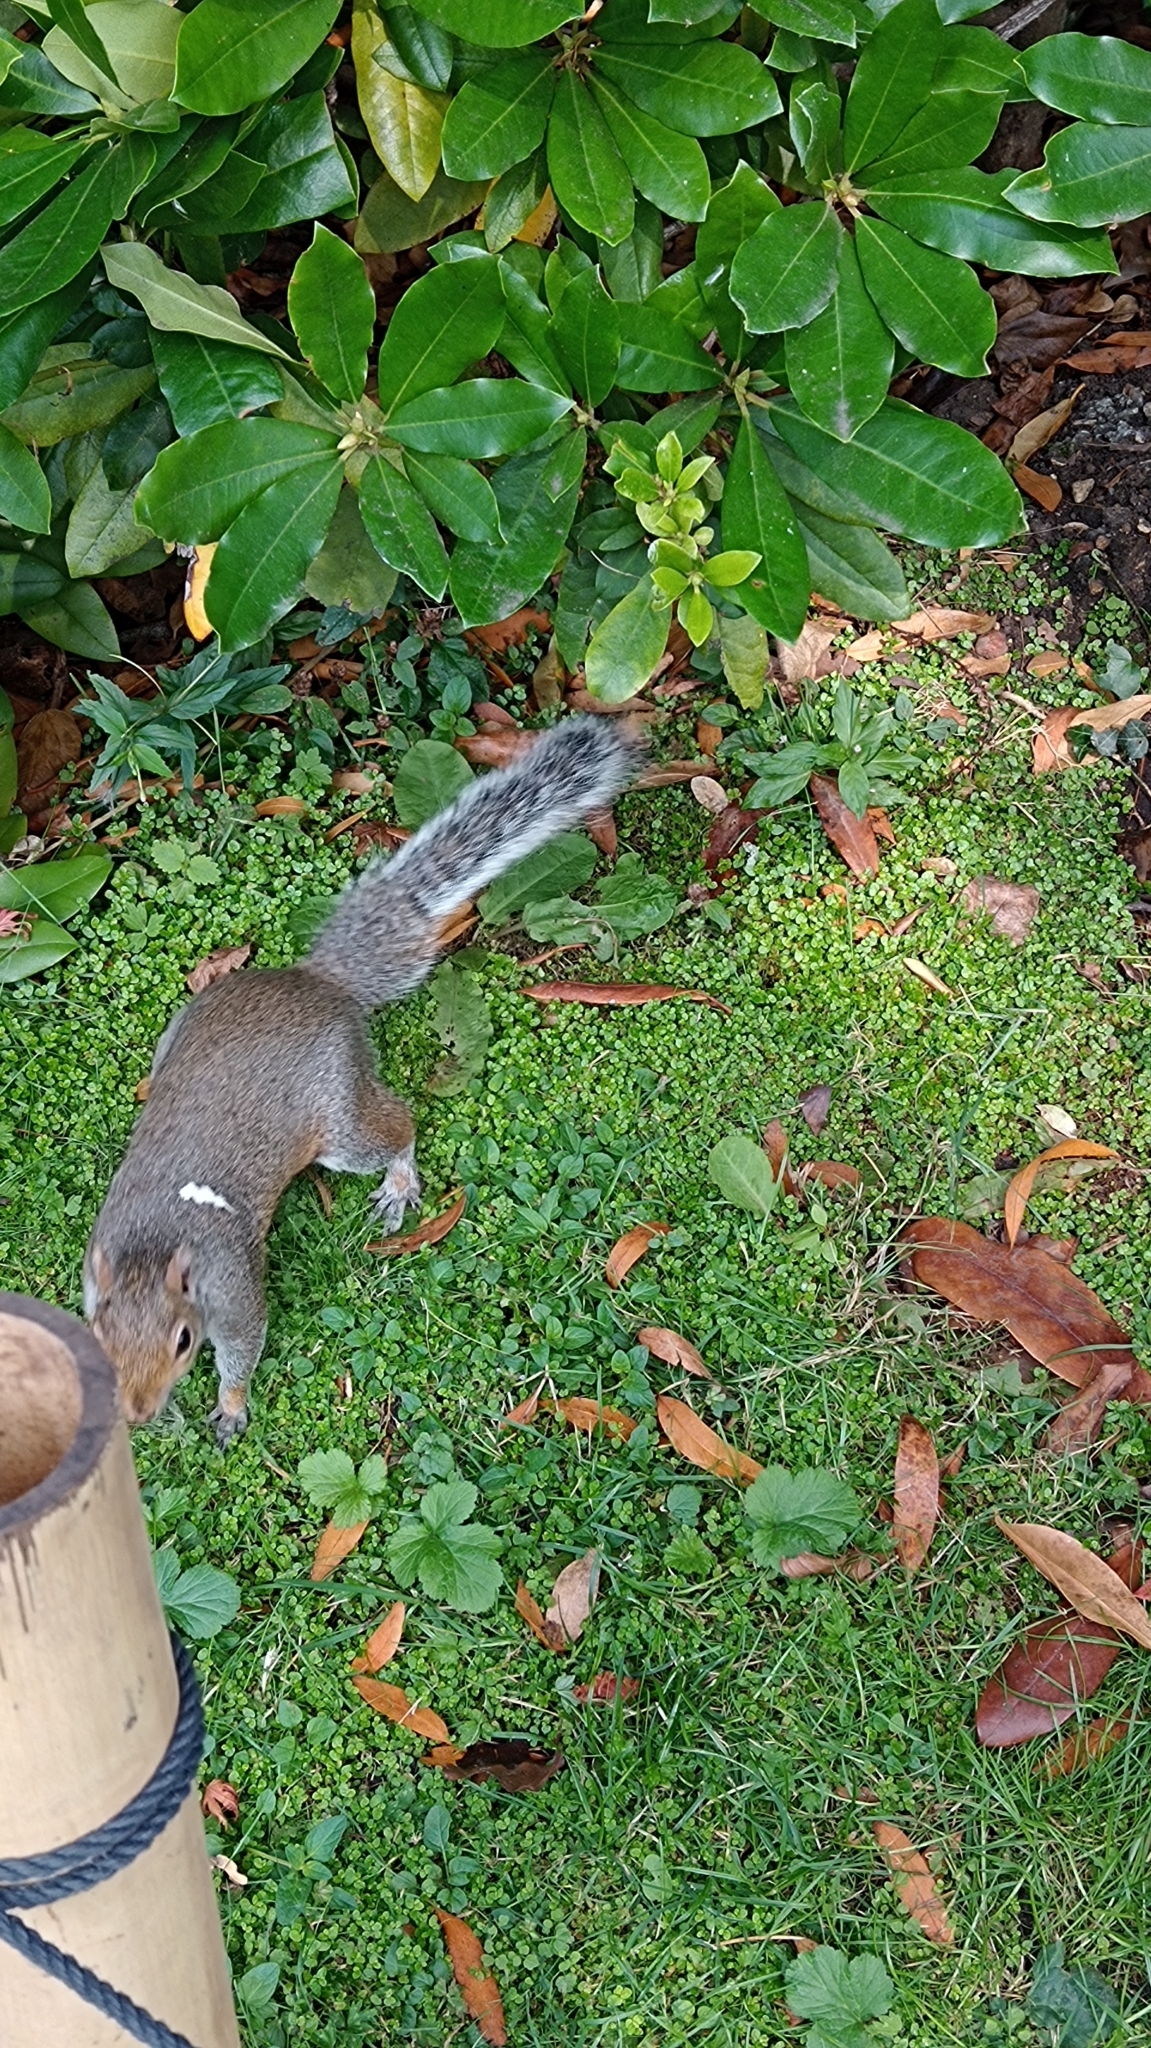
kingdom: Animalia
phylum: Chordata
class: Mammalia
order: Rodentia
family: Sciuridae
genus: Sciurus
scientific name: Sciurus carolinensis
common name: Eastern gray squirrel
